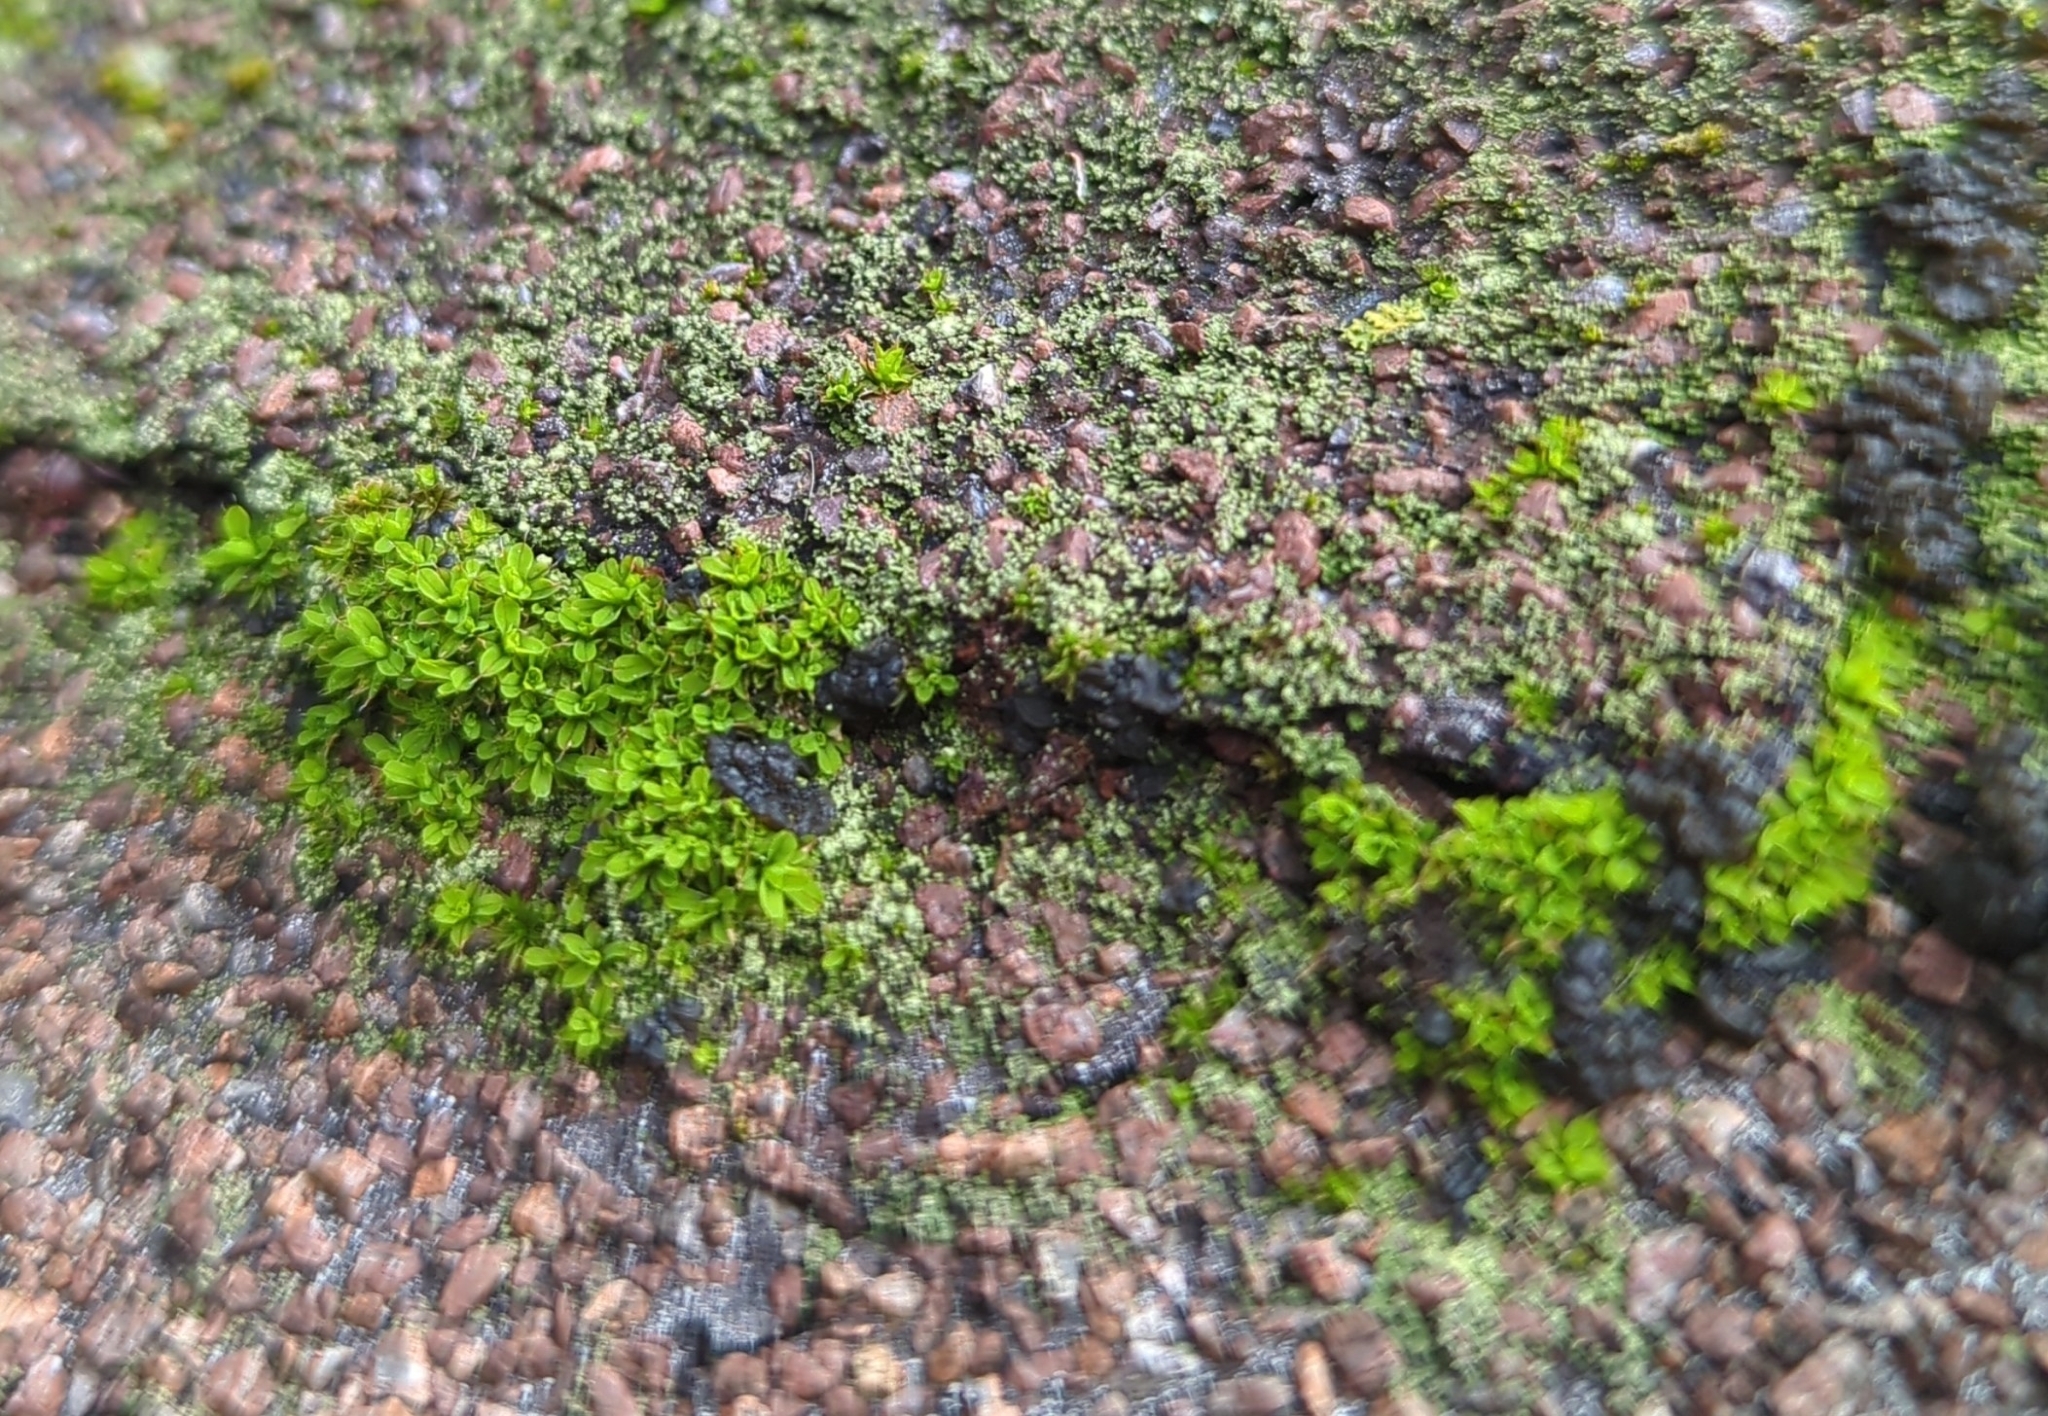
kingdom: Plantae
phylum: Bryophyta
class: Bryopsida
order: Pottiales
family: Pottiaceae
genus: Syntrichia
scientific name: Syntrichia pagorum
